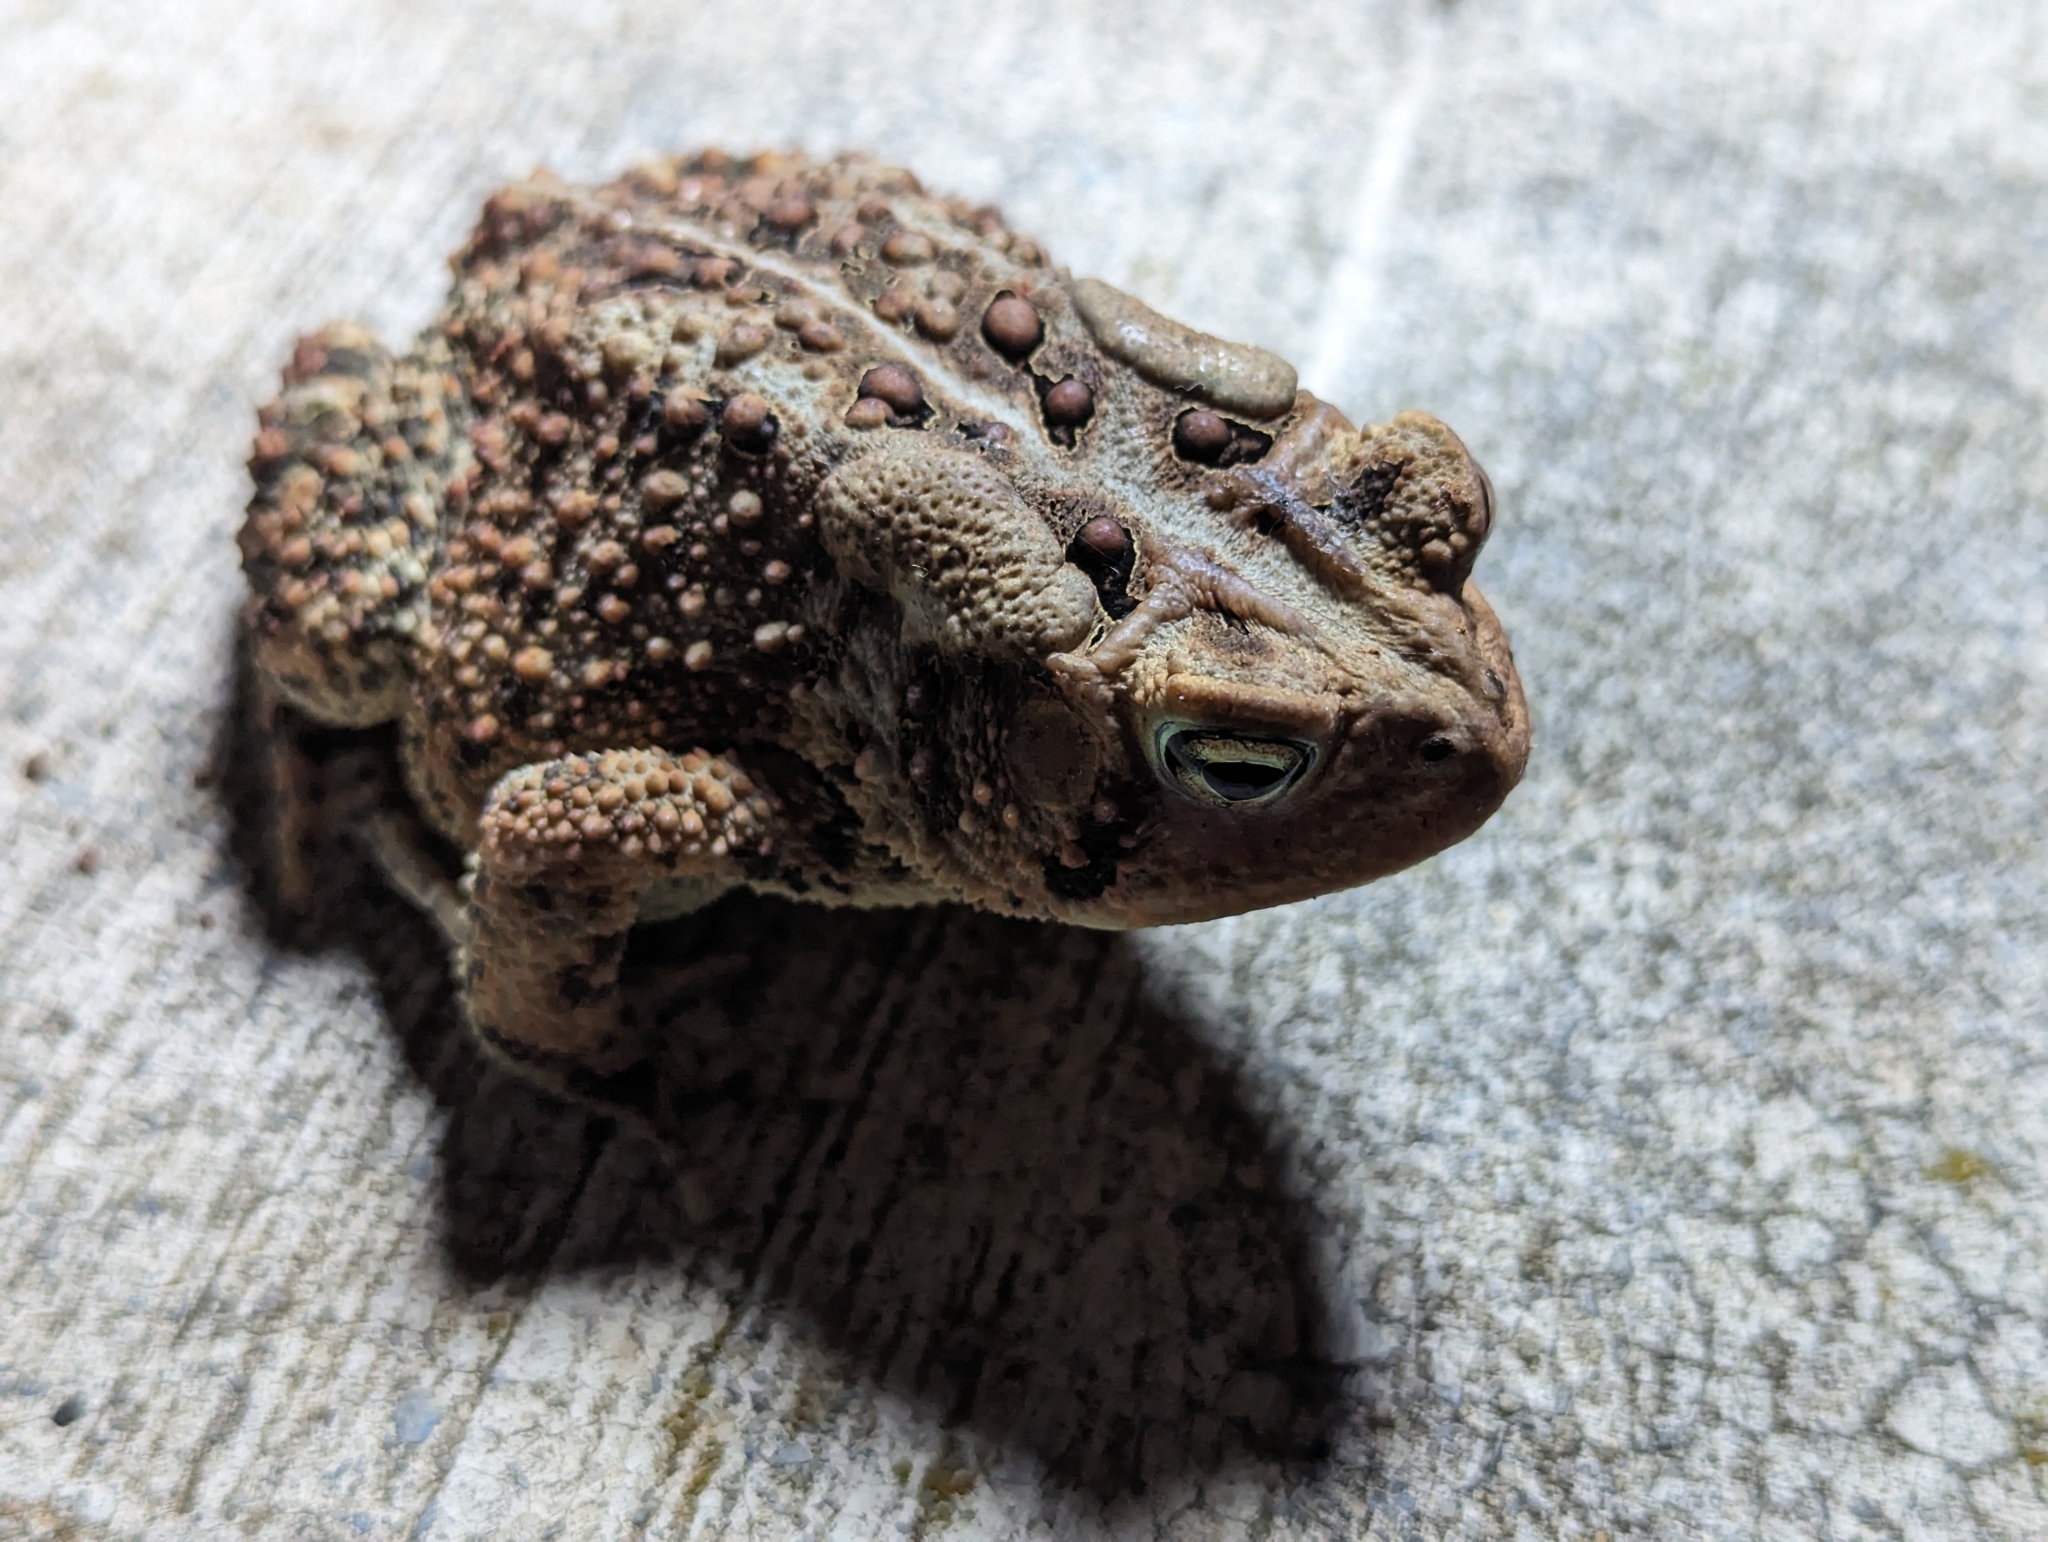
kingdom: Animalia
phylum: Chordata
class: Amphibia
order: Anura
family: Bufonidae
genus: Anaxyrus
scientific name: Anaxyrus americanus
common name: American toad
